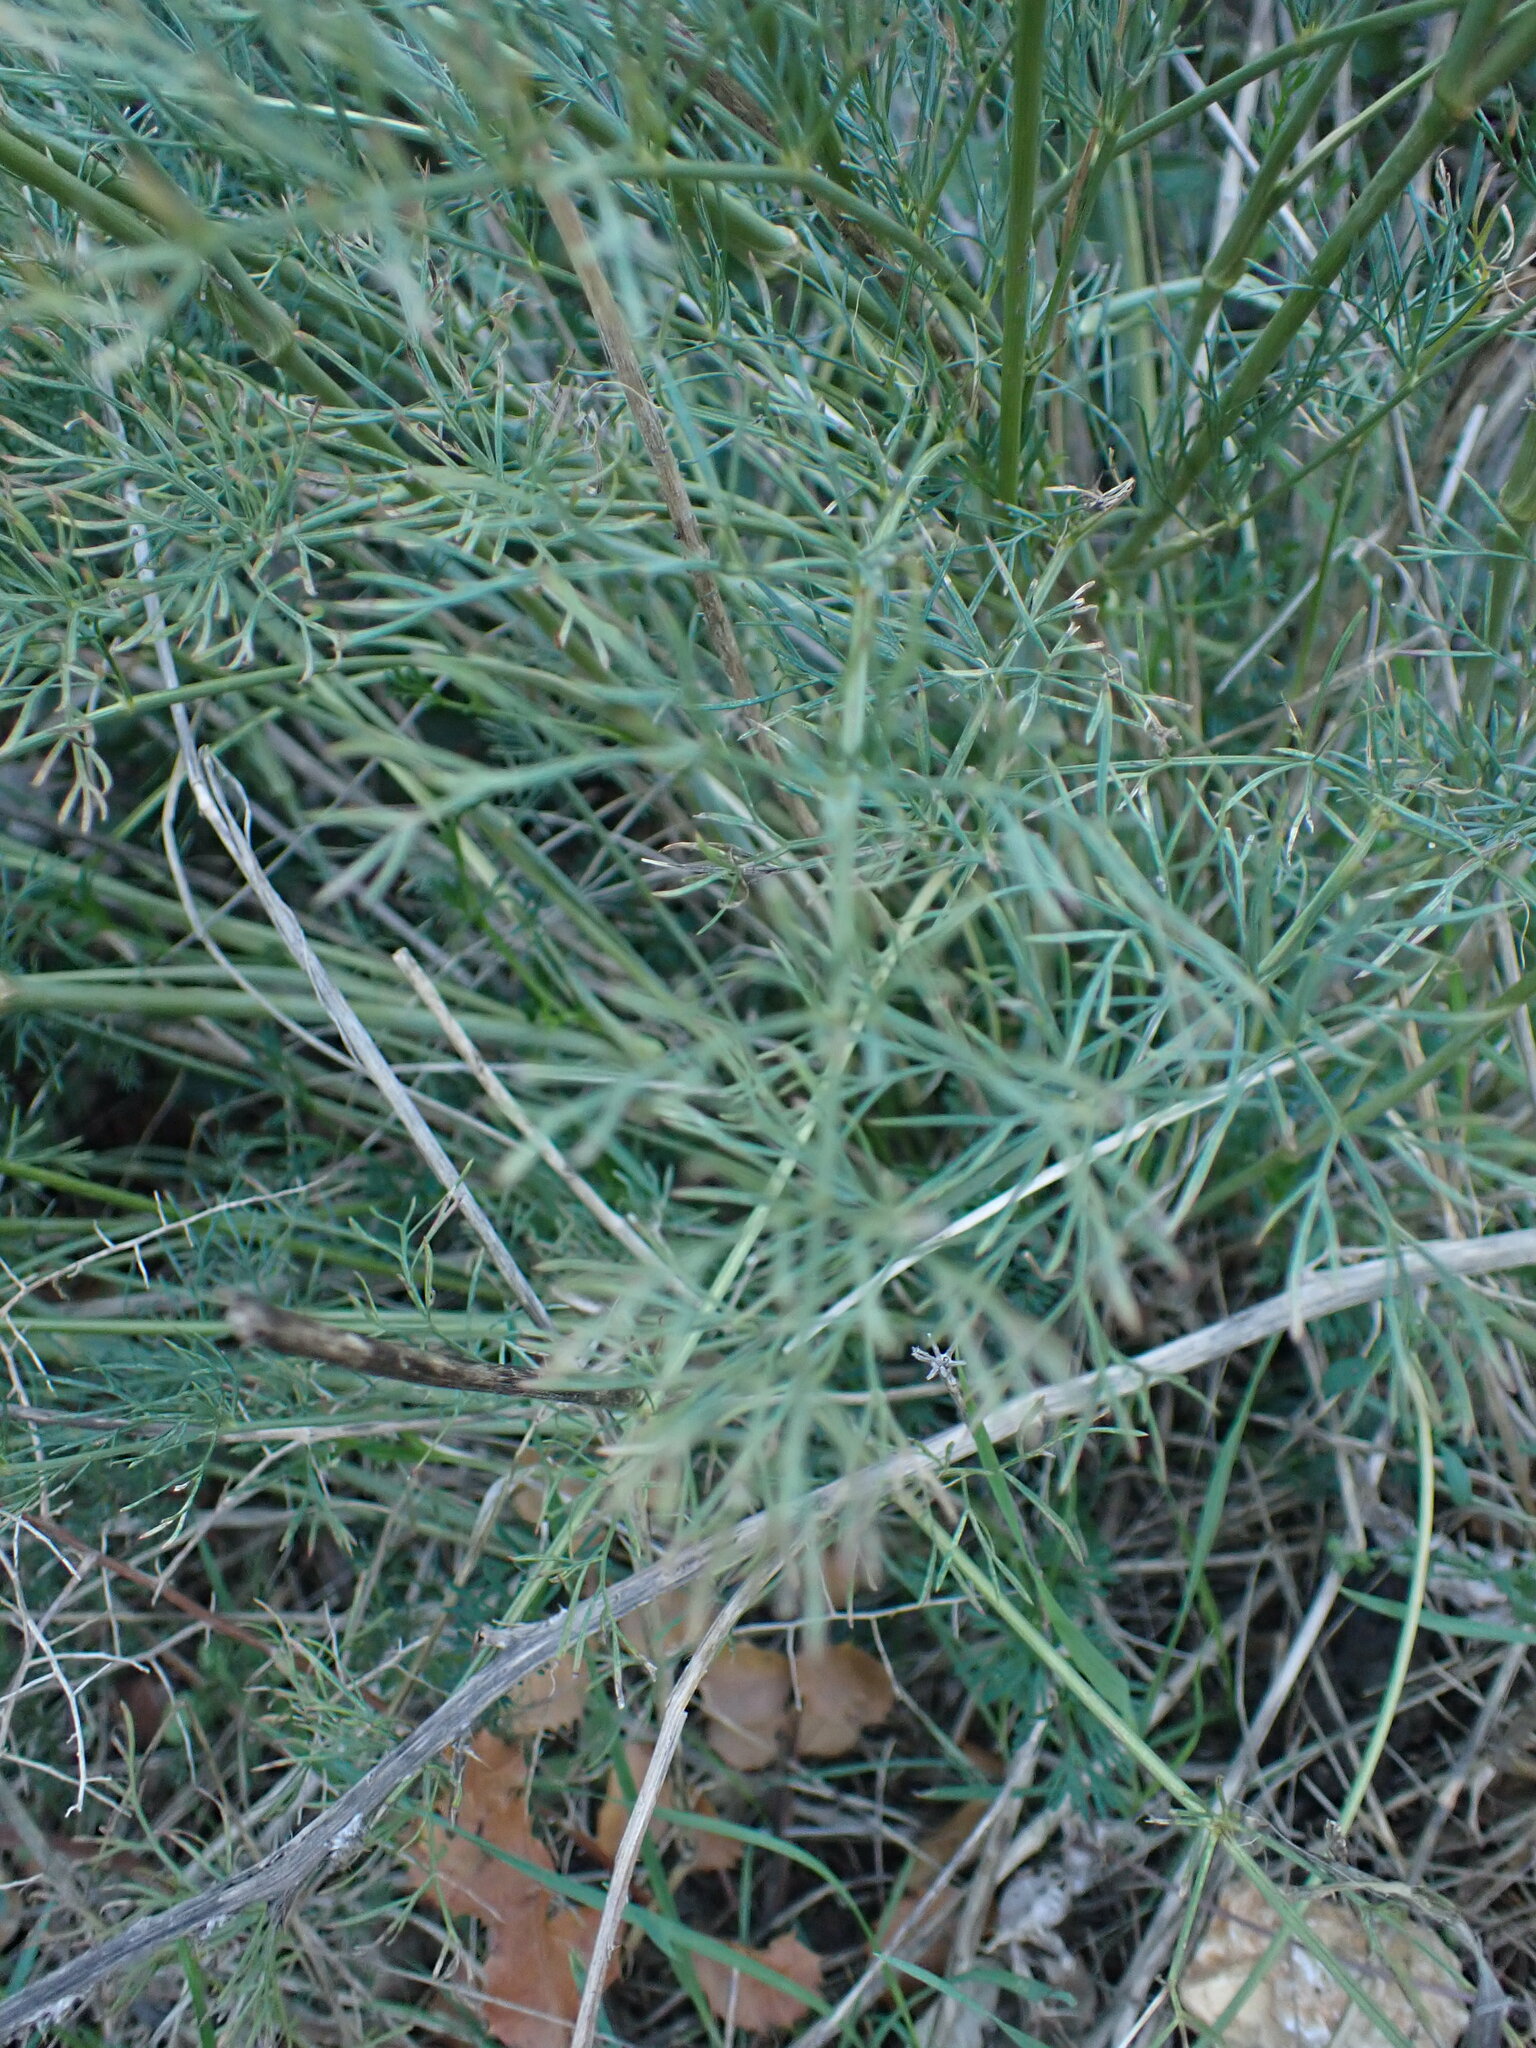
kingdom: Plantae
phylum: Tracheophyta
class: Magnoliopsida
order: Apiales
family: Apiaceae
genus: Seseli
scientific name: Seseli tortuosum
